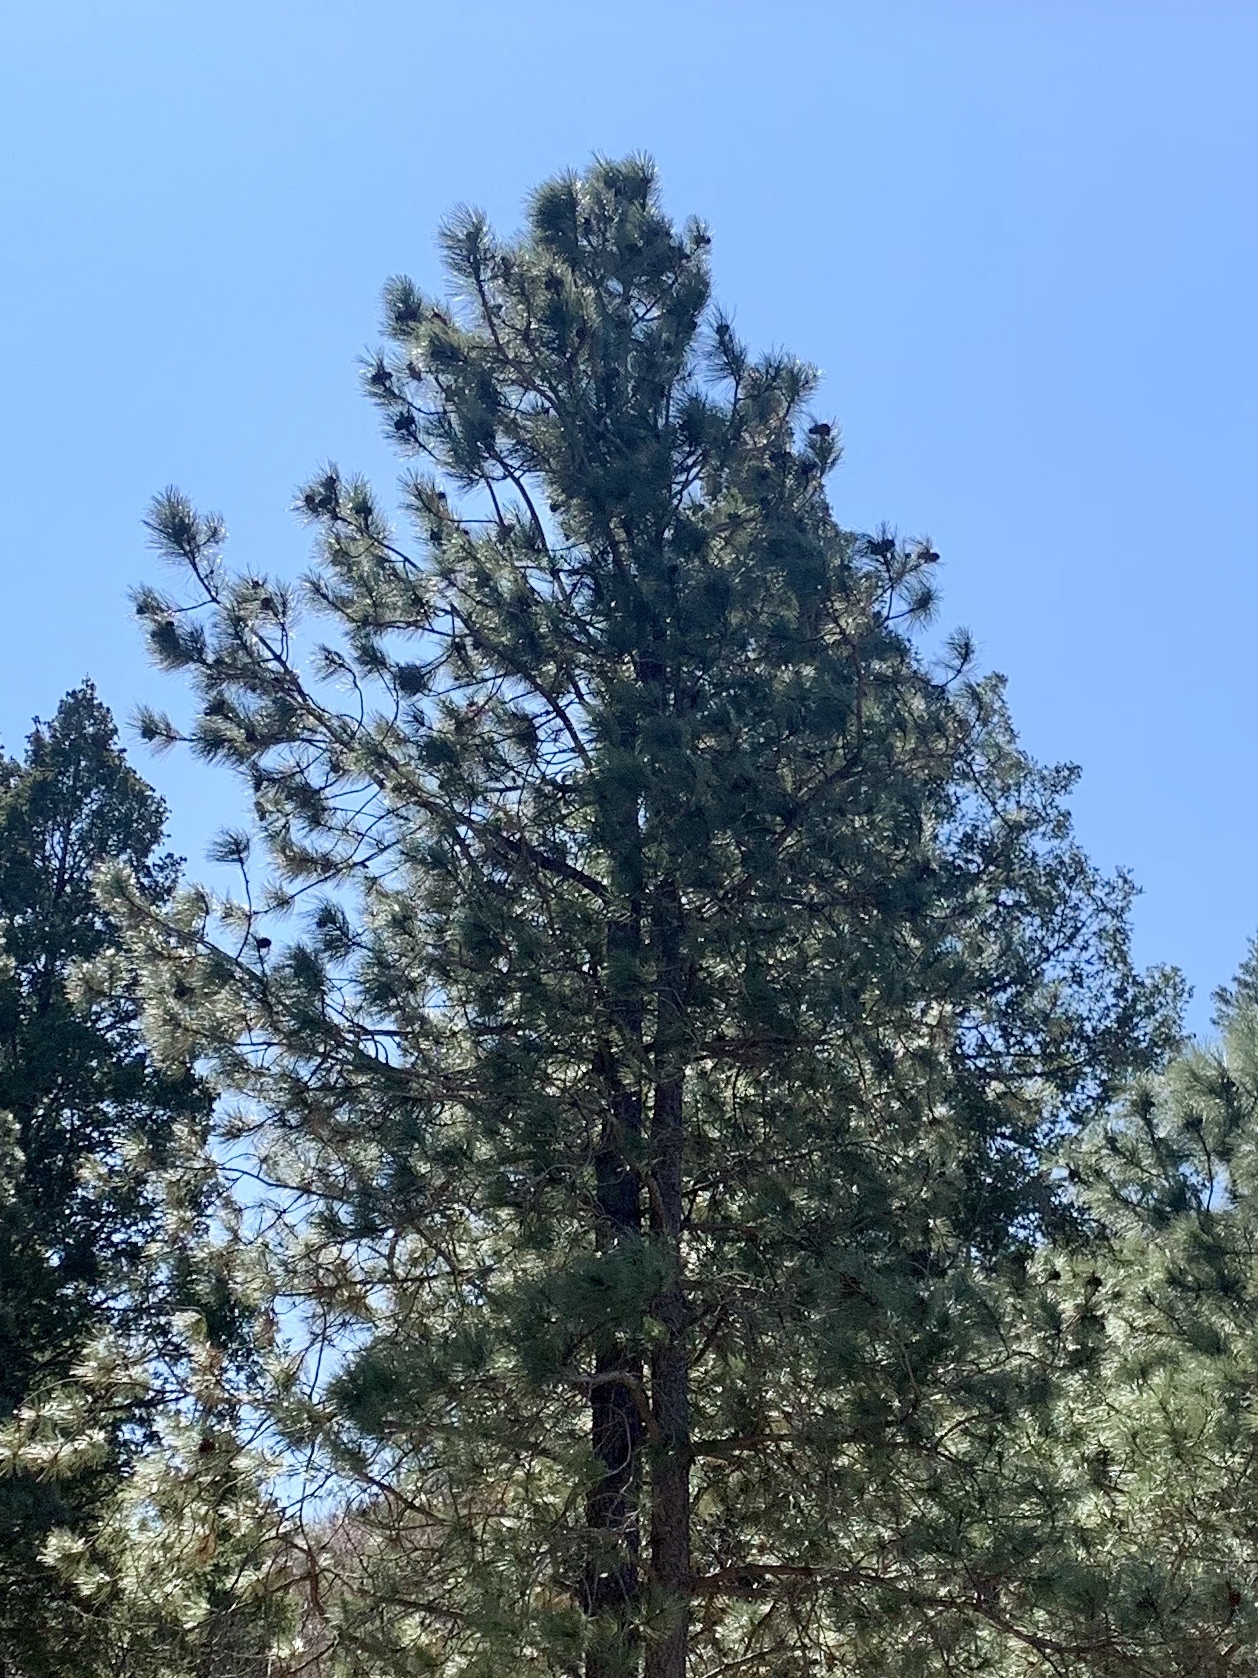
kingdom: Plantae
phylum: Tracheophyta
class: Pinopsida
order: Pinales
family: Pinaceae
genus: Pinus
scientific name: Pinus ponderosa
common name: Western yellow-pine
